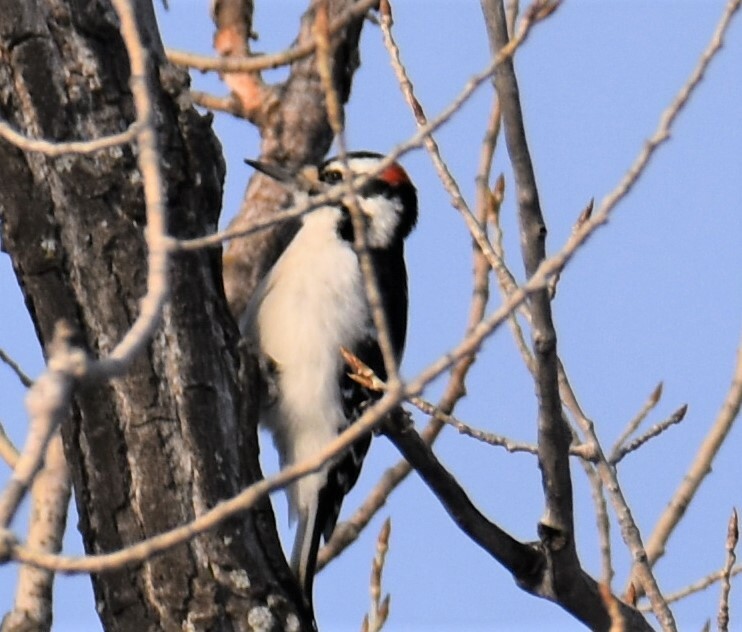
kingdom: Animalia
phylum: Chordata
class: Aves
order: Piciformes
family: Picidae
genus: Leuconotopicus
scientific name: Leuconotopicus villosus
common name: Hairy woodpecker
